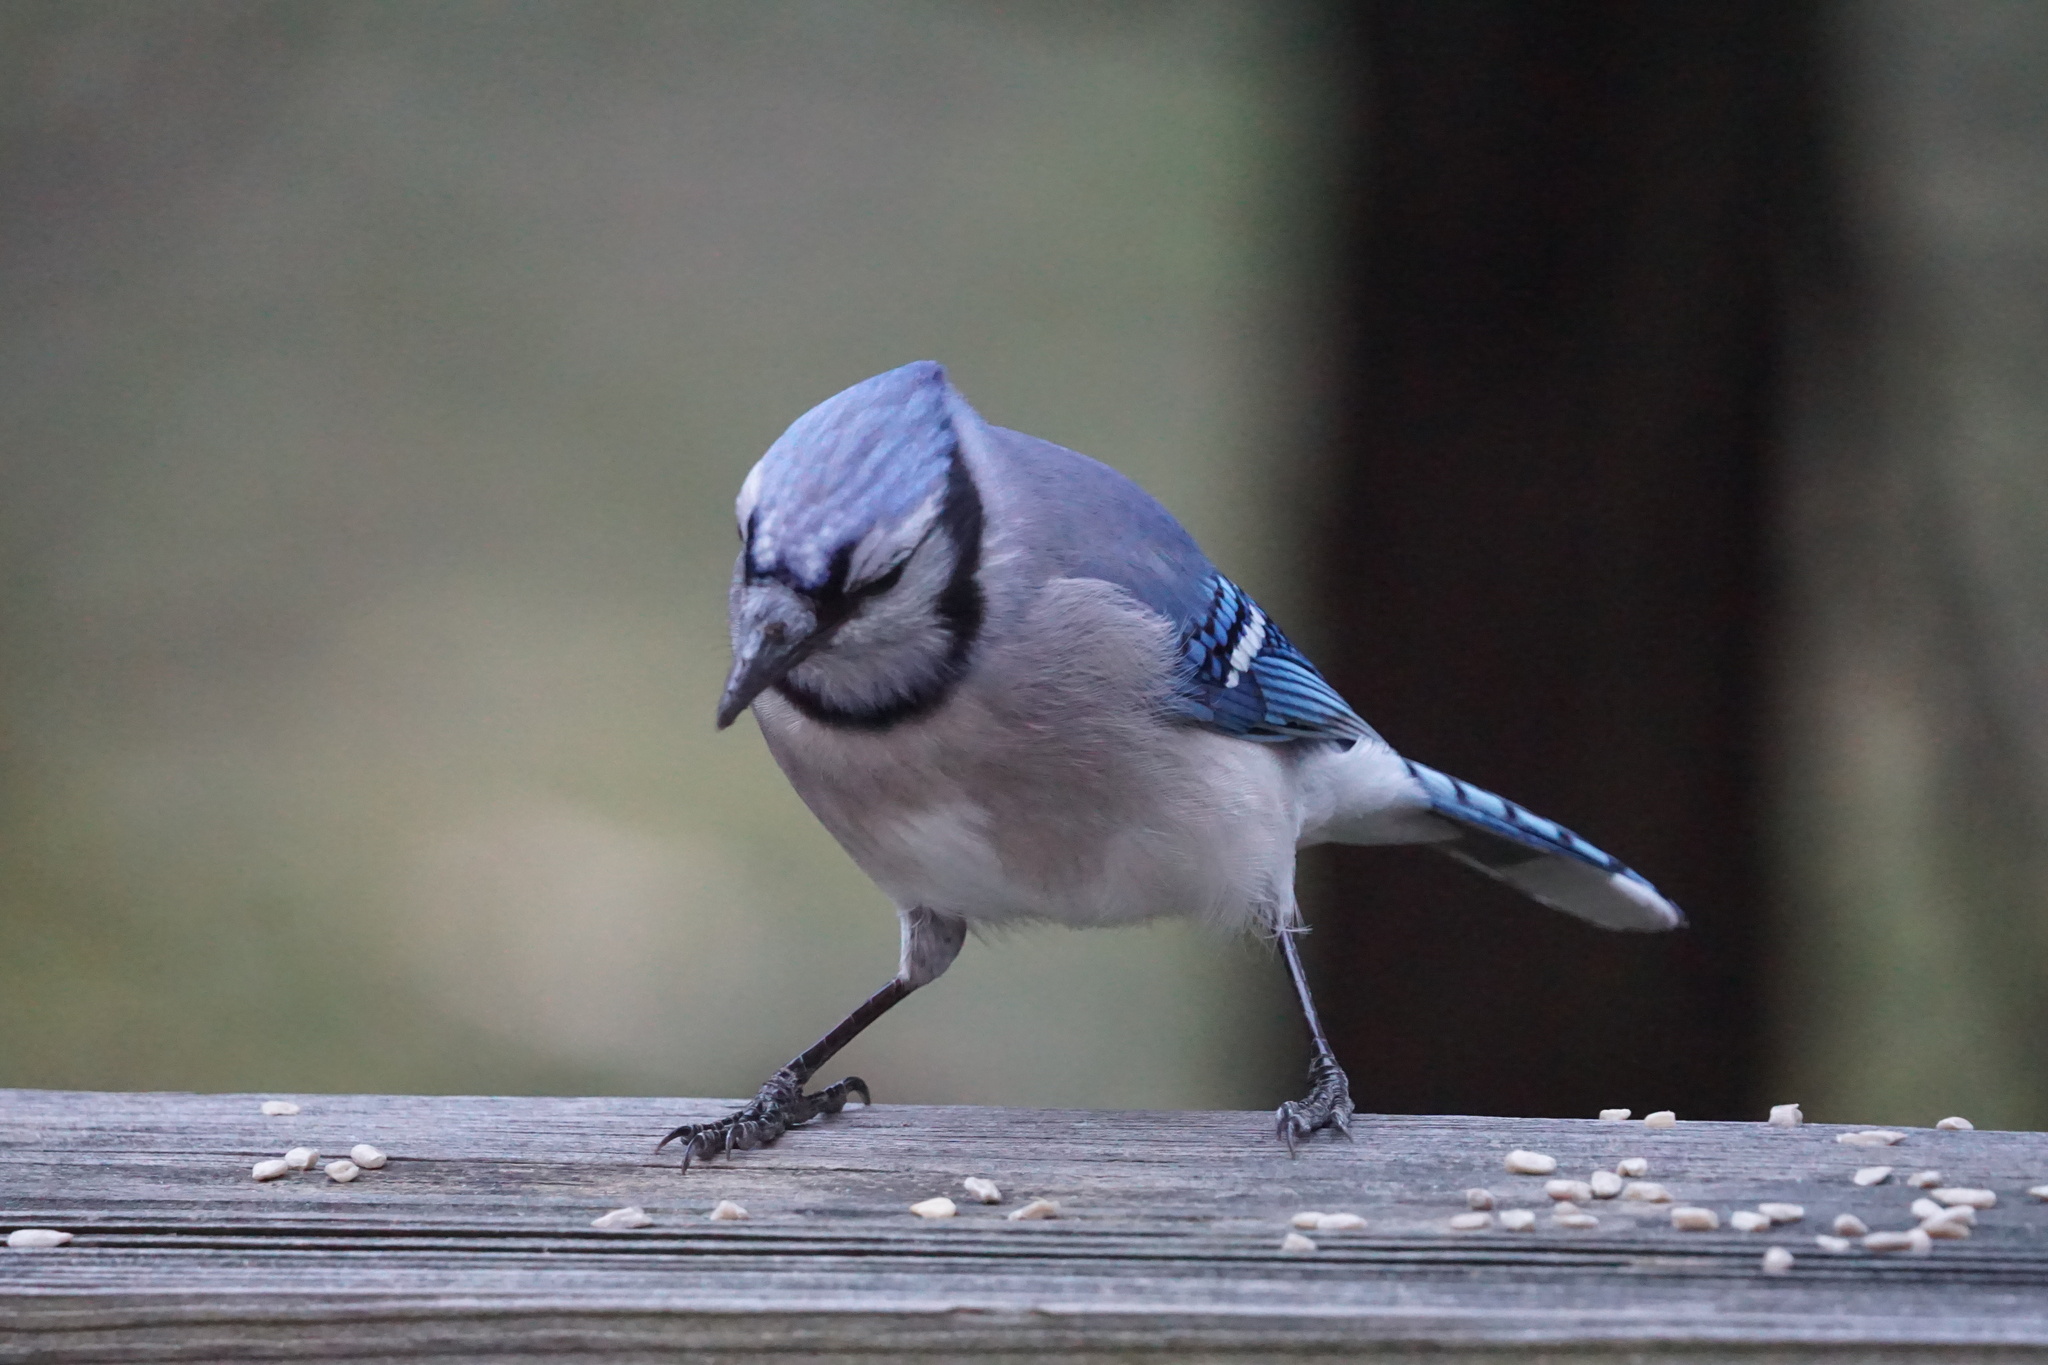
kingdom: Animalia
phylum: Chordata
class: Aves
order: Passeriformes
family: Corvidae
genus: Cyanocitta
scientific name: Cyanocitta cristata
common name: Blue jay
